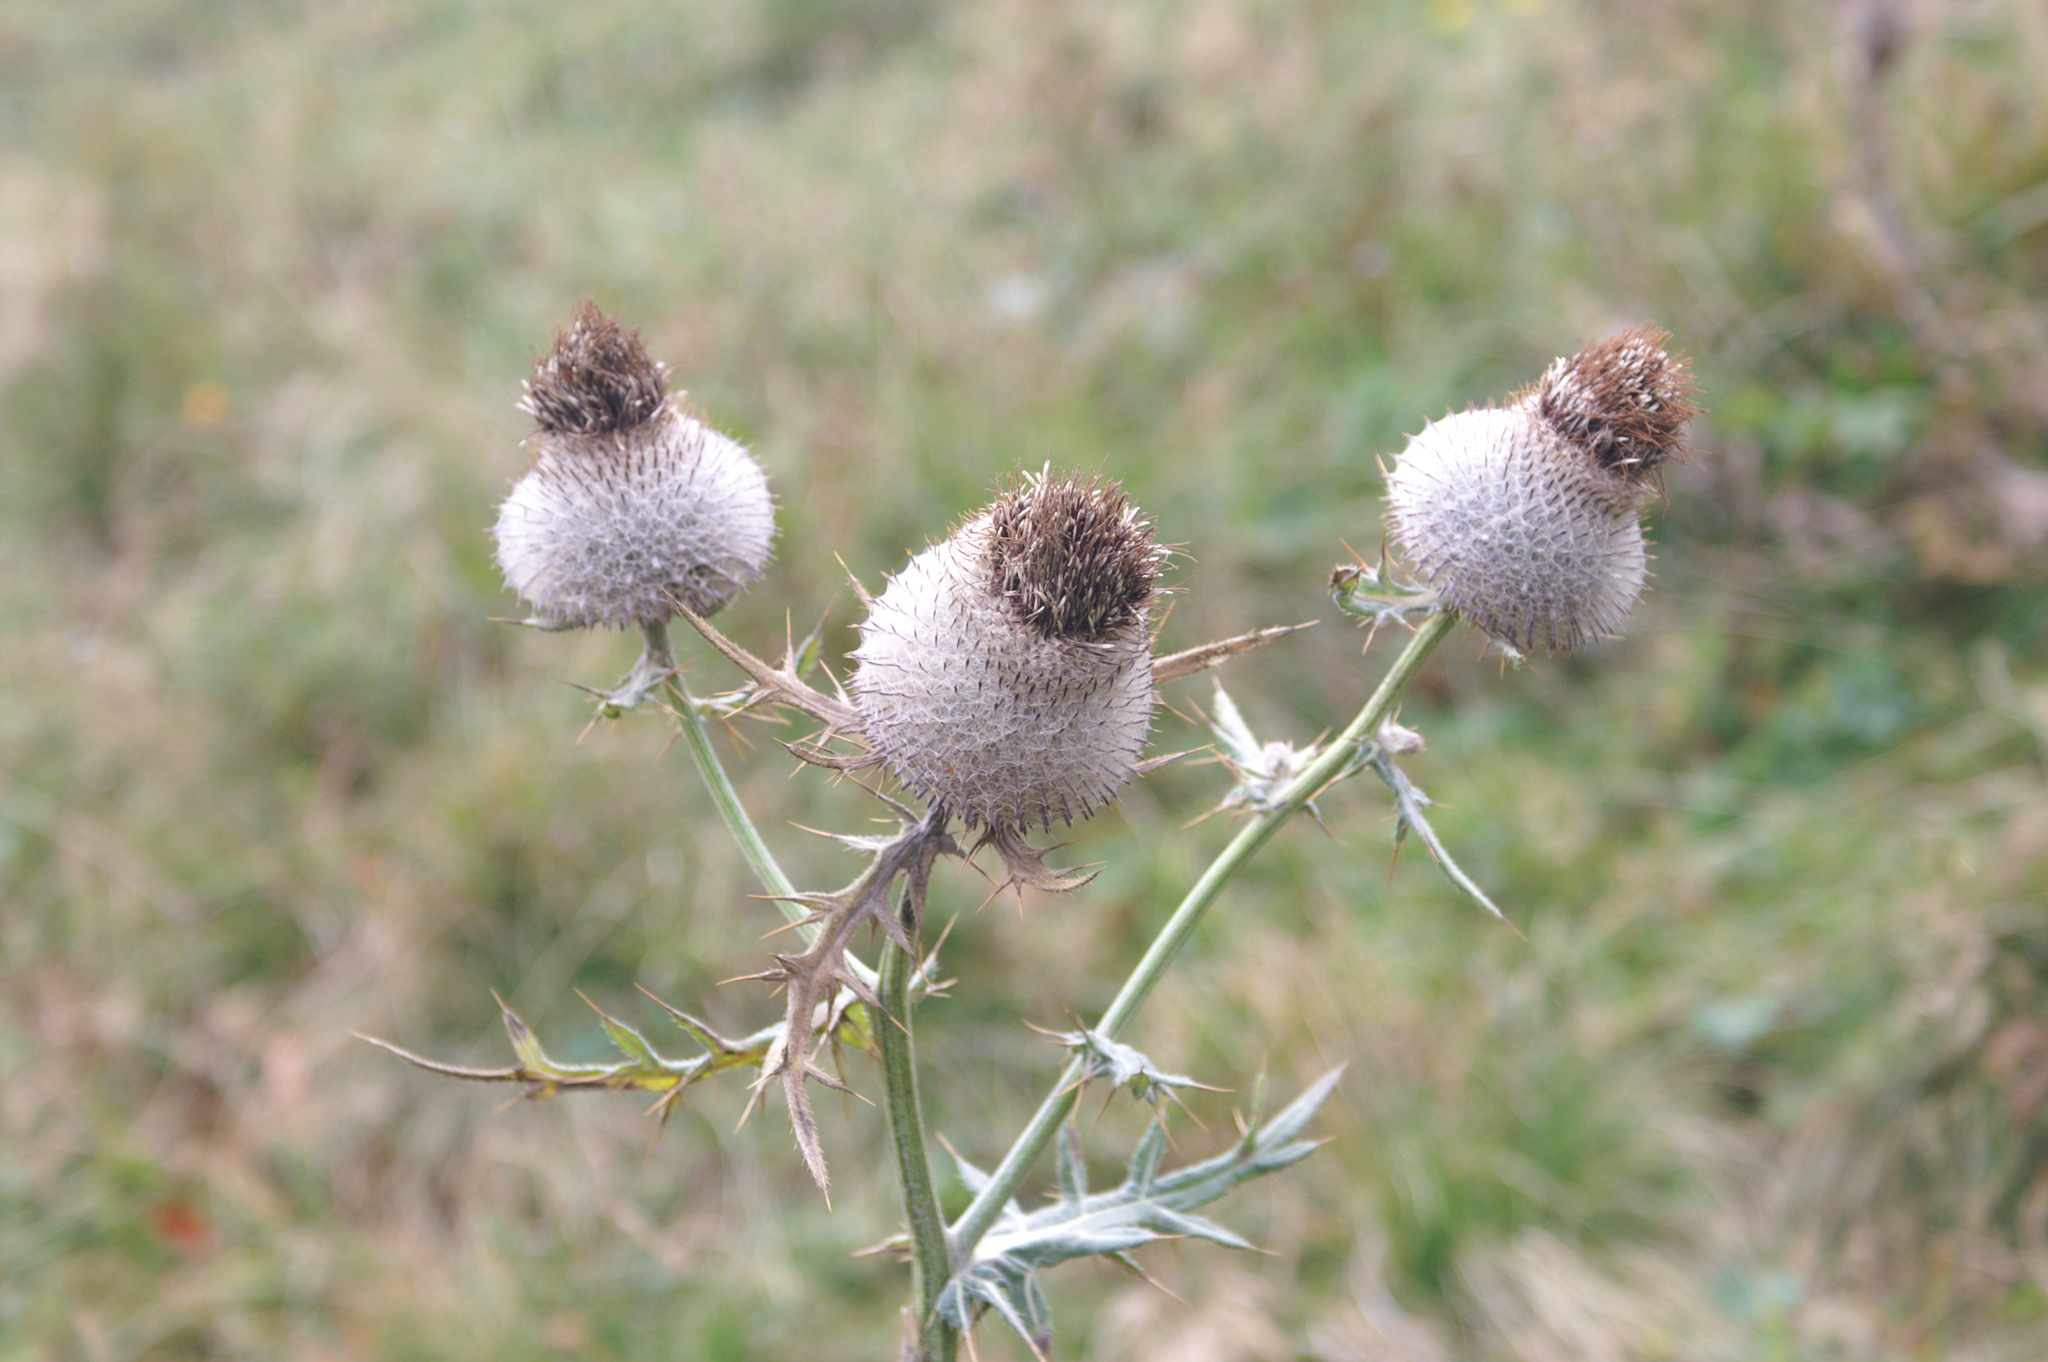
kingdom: Plantae
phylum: Tracheophyta
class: Magnoliopsida
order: Asterales
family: Asteraceae
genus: Lophiolepis
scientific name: Lophiolepis eriophora
